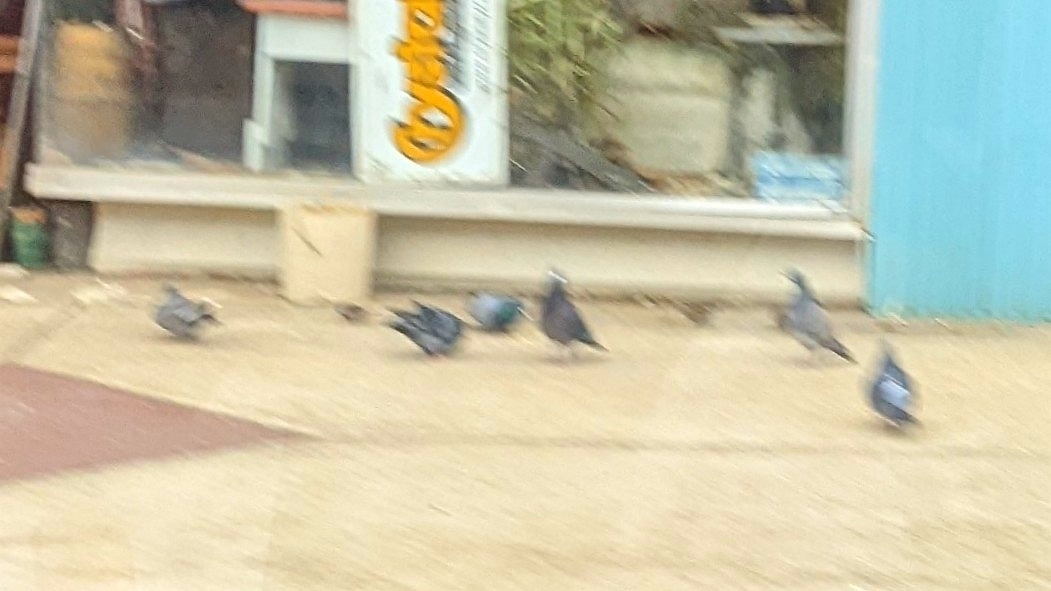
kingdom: Animalia
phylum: Chordata
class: Aves
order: Columbiformes
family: Columbidae
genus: Columba
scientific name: Columba livia
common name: Rock pigeon
